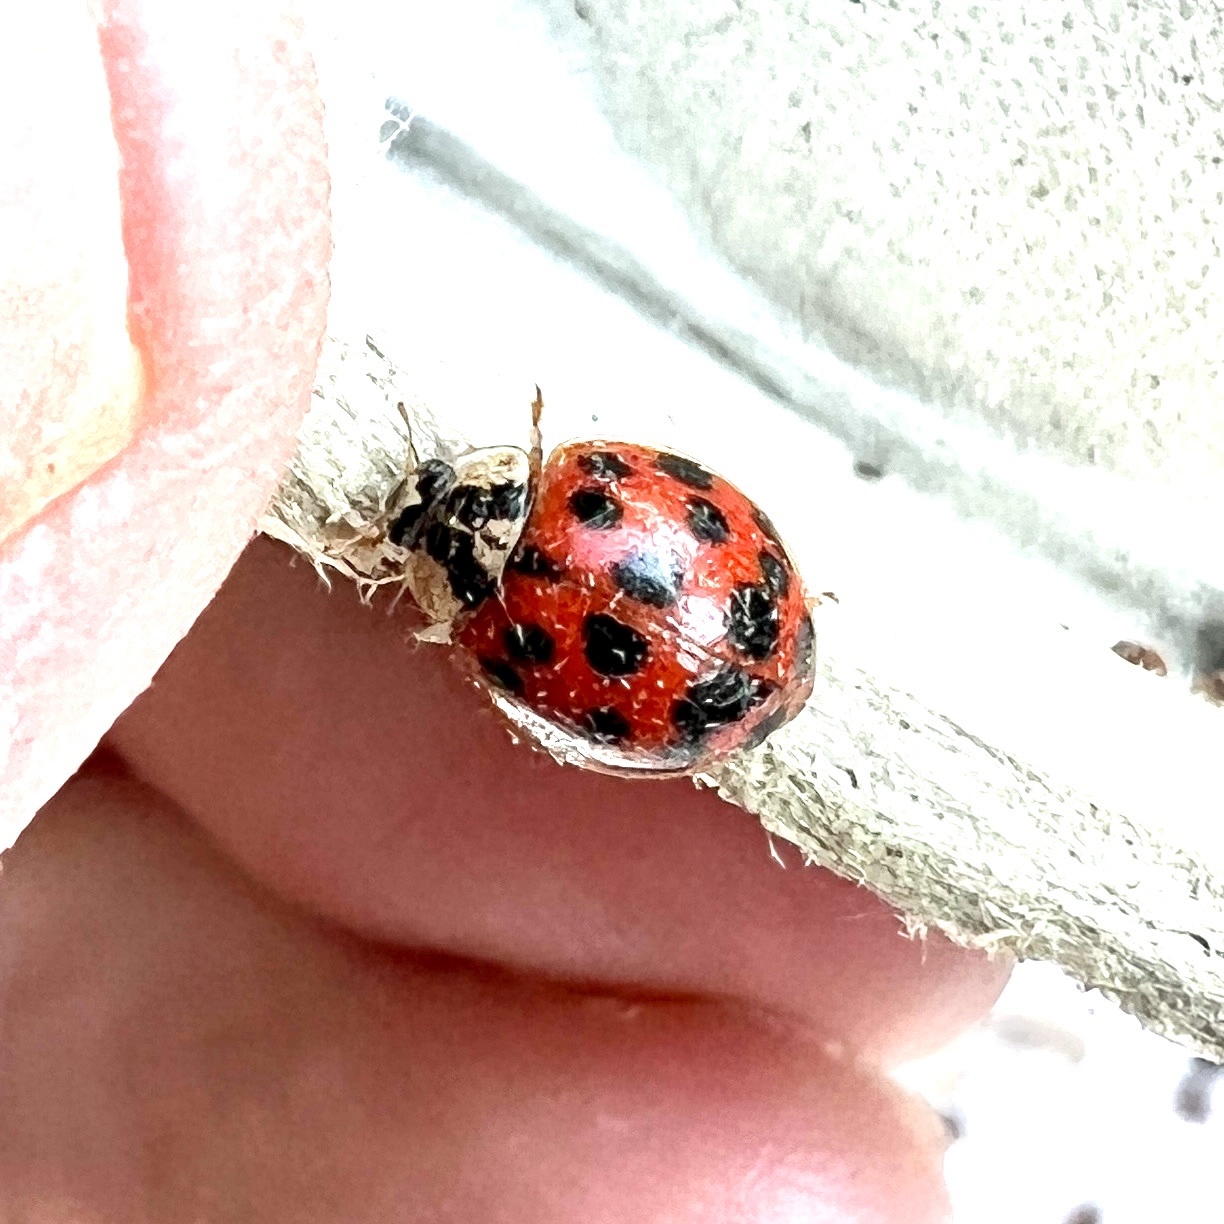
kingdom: Animalia
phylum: Arthropoda
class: Insecta
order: Coleoptera
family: Coccinellidae
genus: Harmonia
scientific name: Harmonia axyridis
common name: Harlequin ladybird
